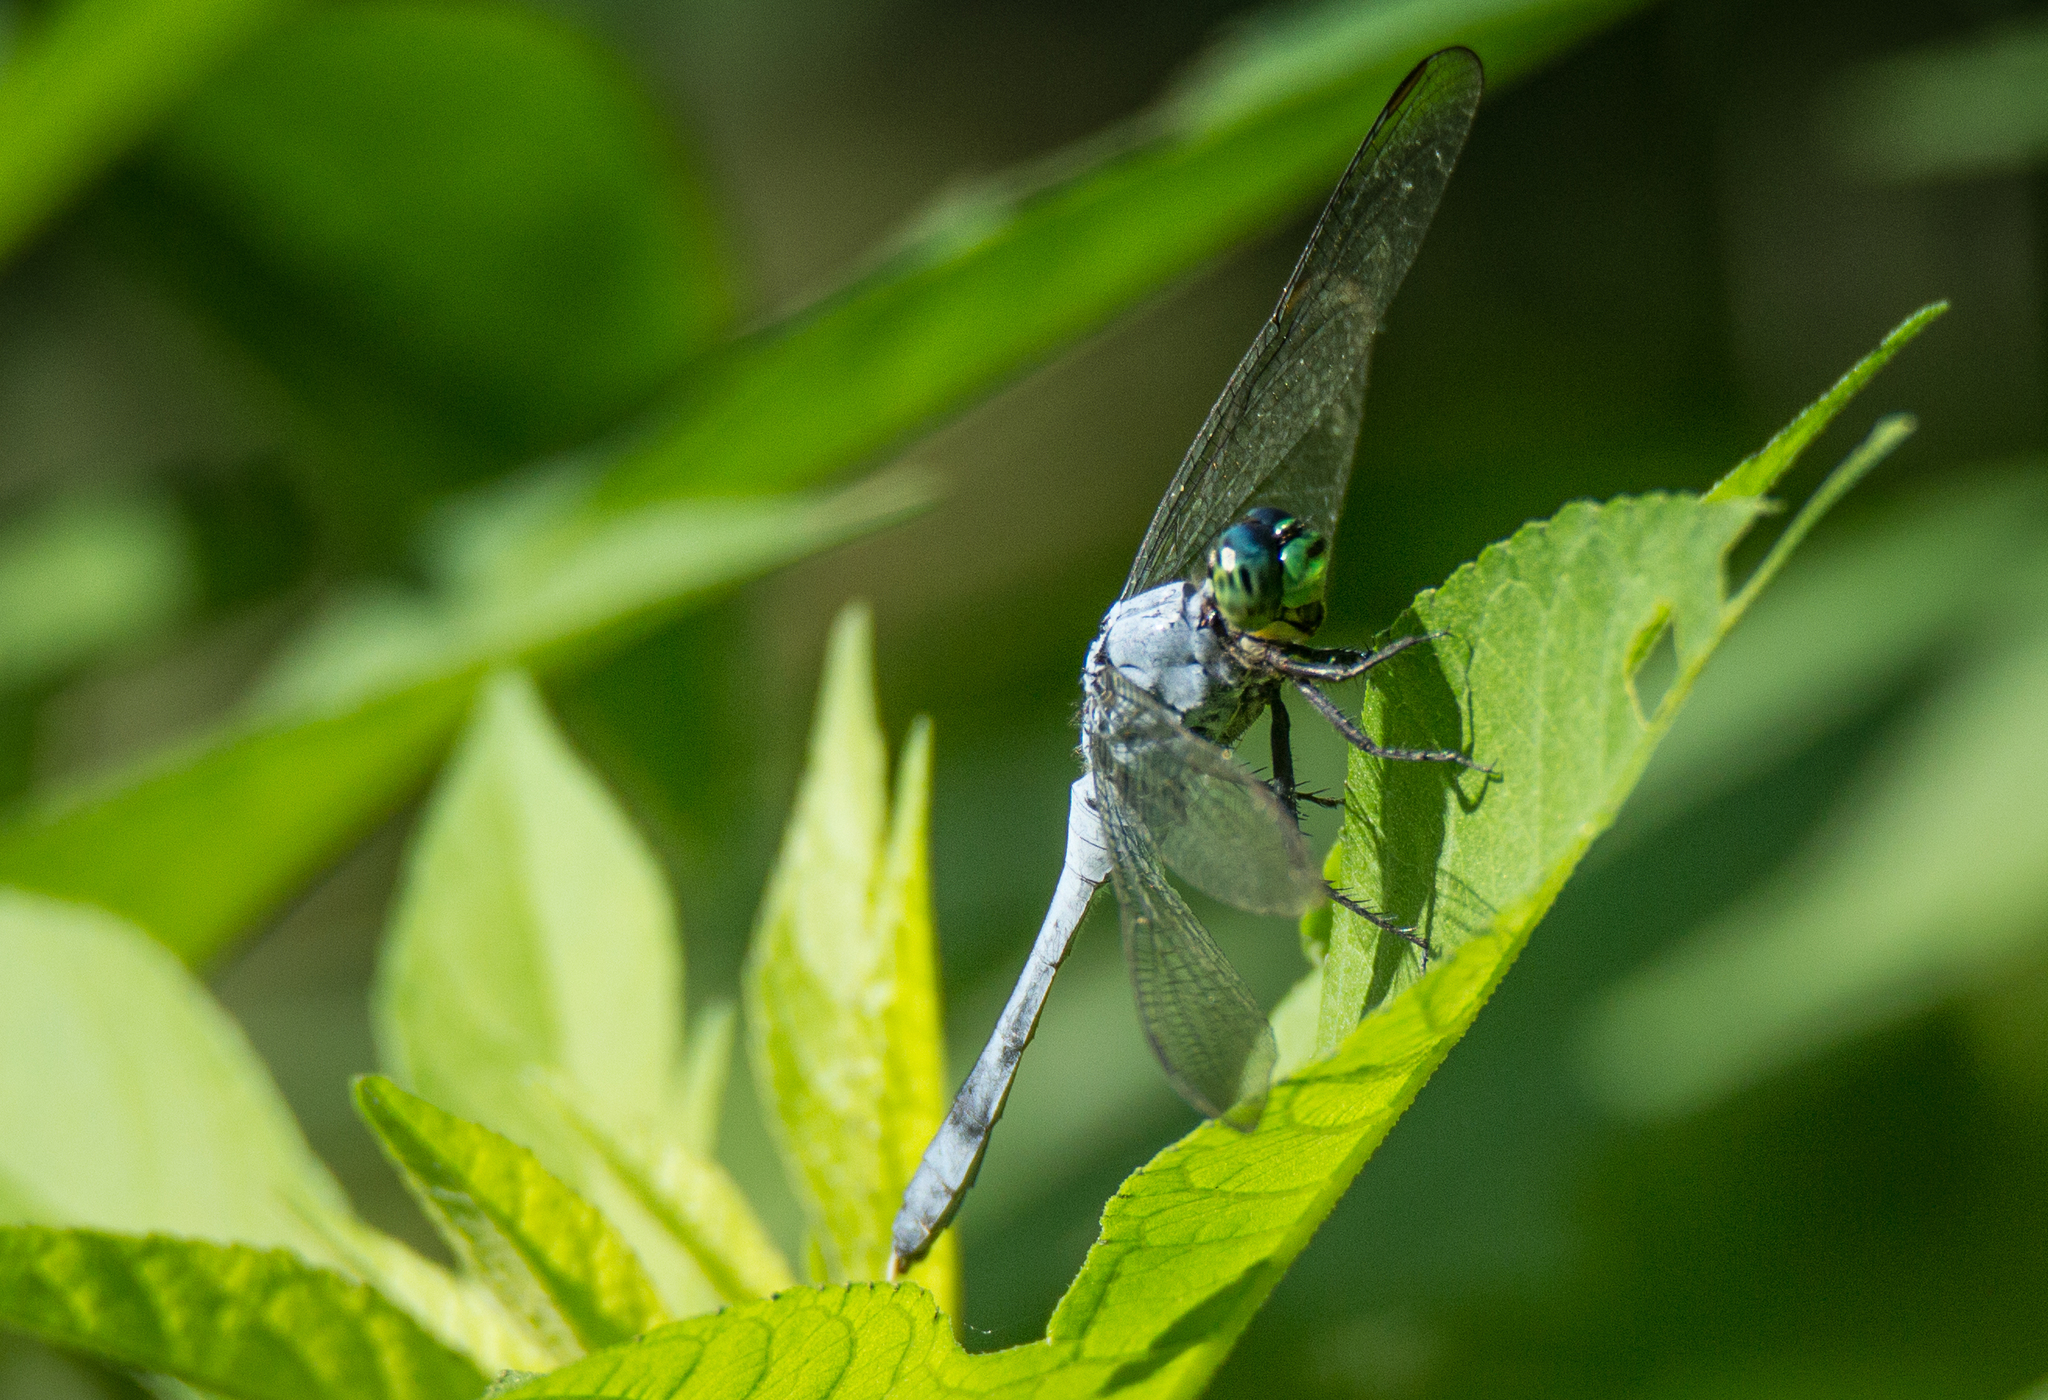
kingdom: Animalia
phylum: Arthropoda
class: Insecta
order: Odonata
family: Libellulidae
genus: Erythemis
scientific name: Erythemis simplicicollis
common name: Eastern pondhawk
